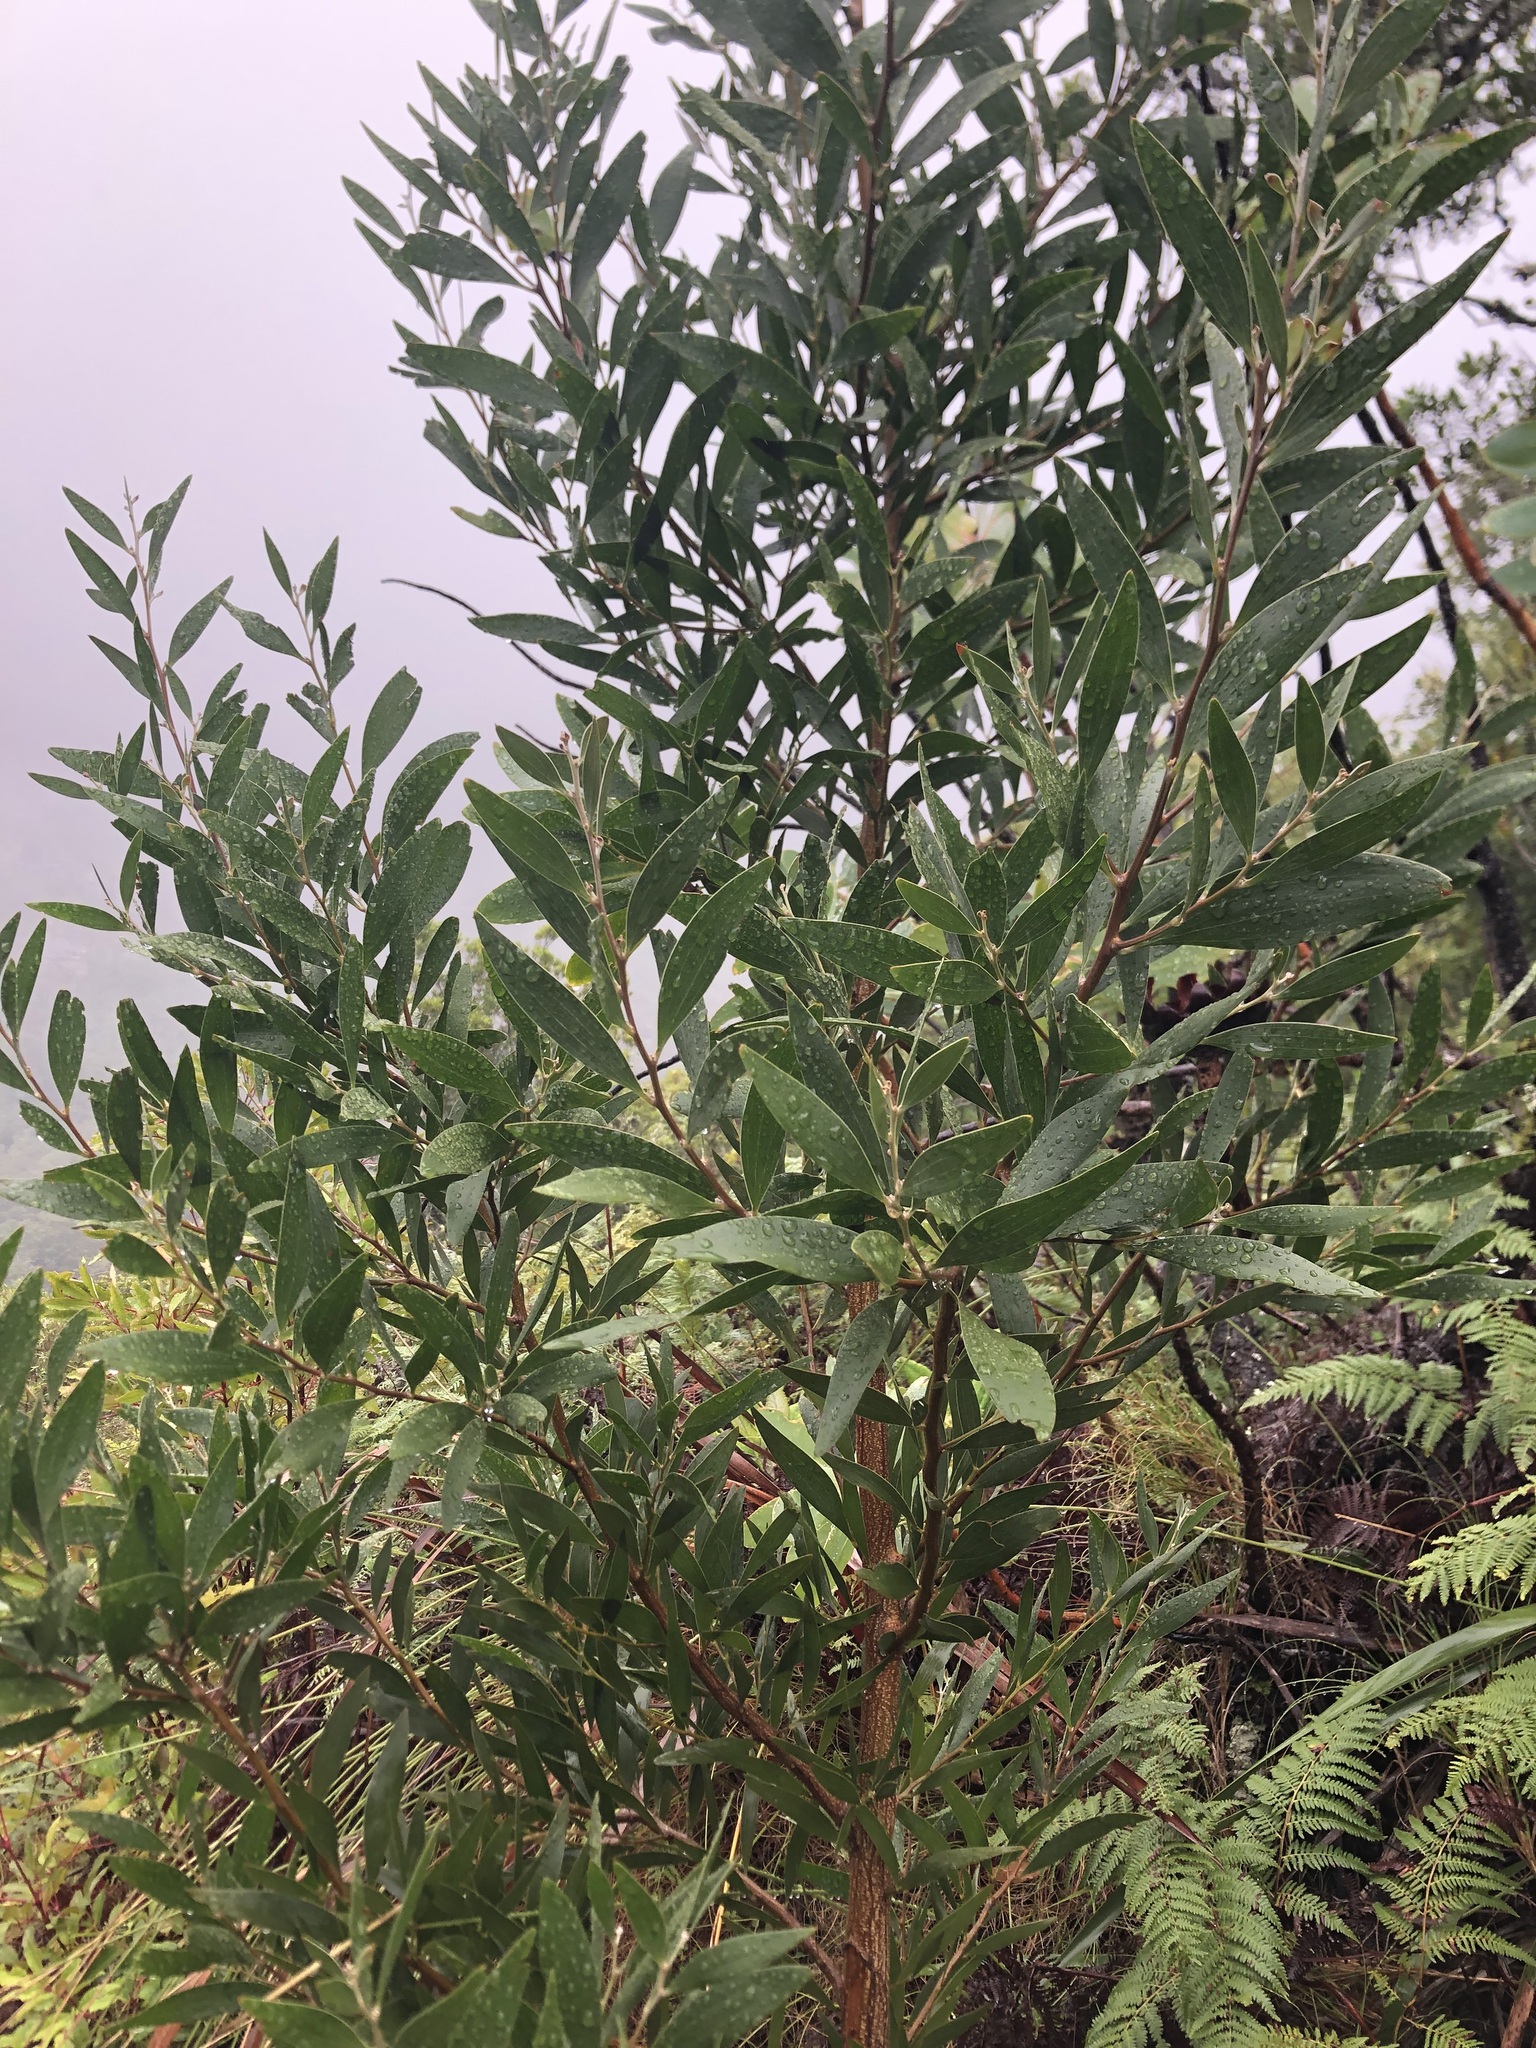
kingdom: Plantae
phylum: Tracheophyta
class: Magnoliopsida
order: Fabales
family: Fabaceae
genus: Acacia
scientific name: Acacia melanoxylon
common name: Blackwood
